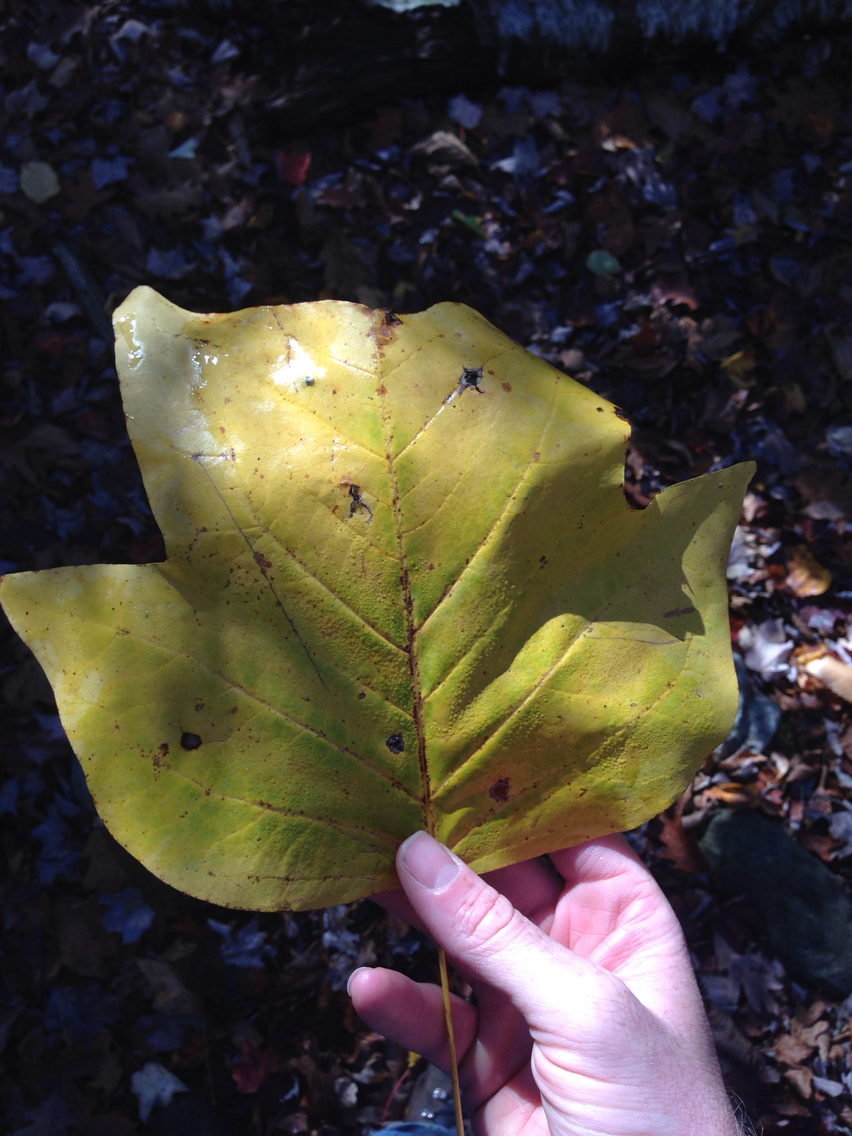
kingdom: Plantae
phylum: Tracheophyta
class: Magnoliopsida
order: Magnoliales
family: Magnoliaceae
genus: Liriodendron
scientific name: Liriodendron tulipifera
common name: Tulip tree
